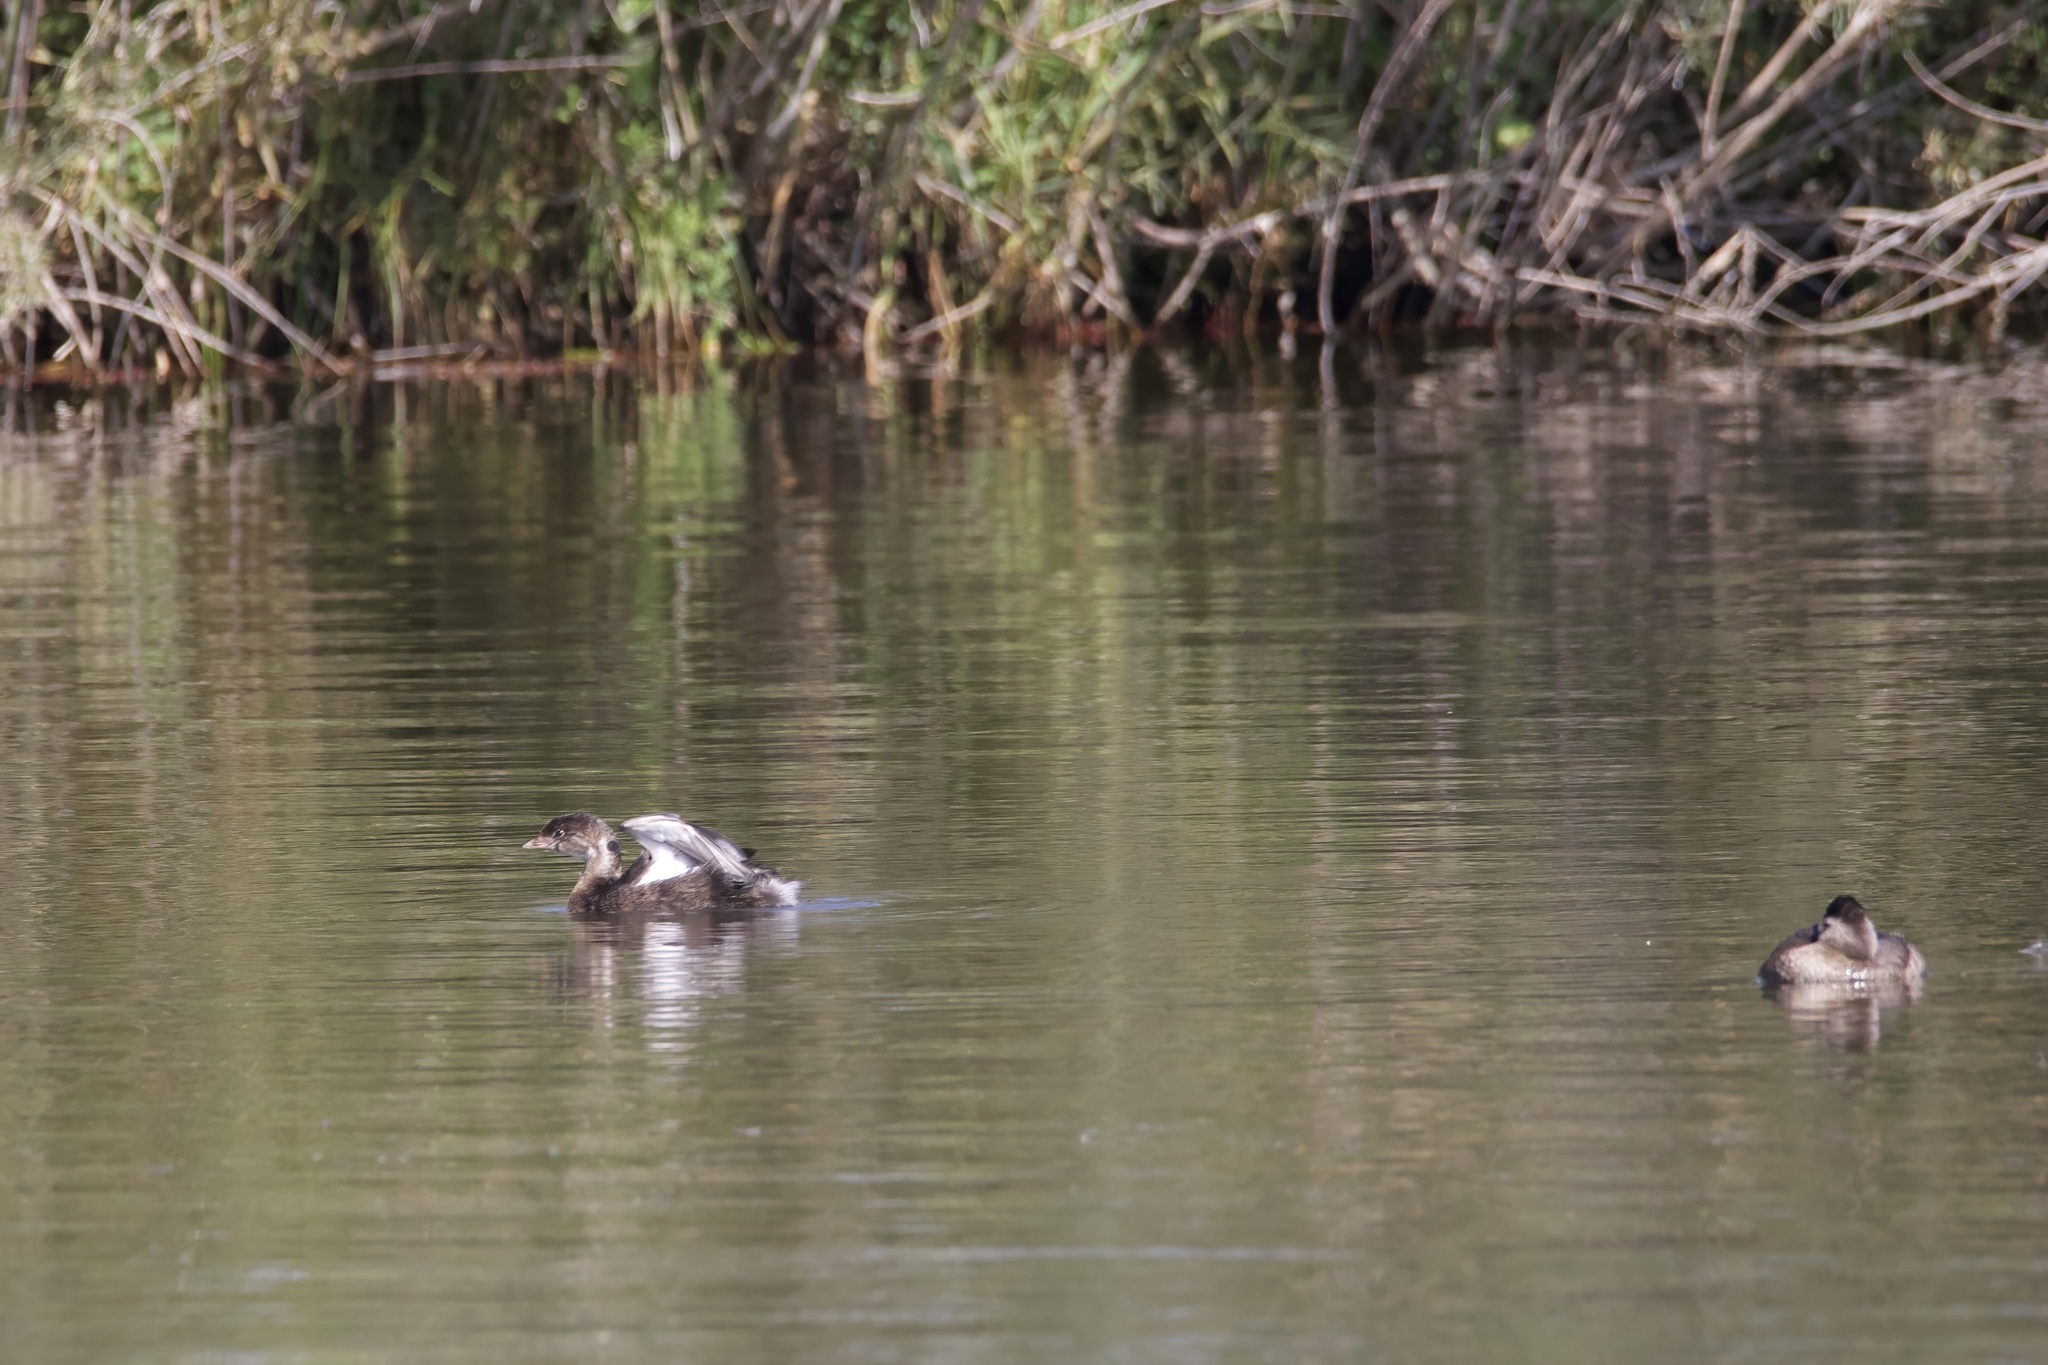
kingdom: Animalia
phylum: Chordata
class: Aves
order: Podicipediformes
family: Podicipedidae
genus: Podilymbus
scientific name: Podilymbus podiceps
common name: Pied-billed grebe
